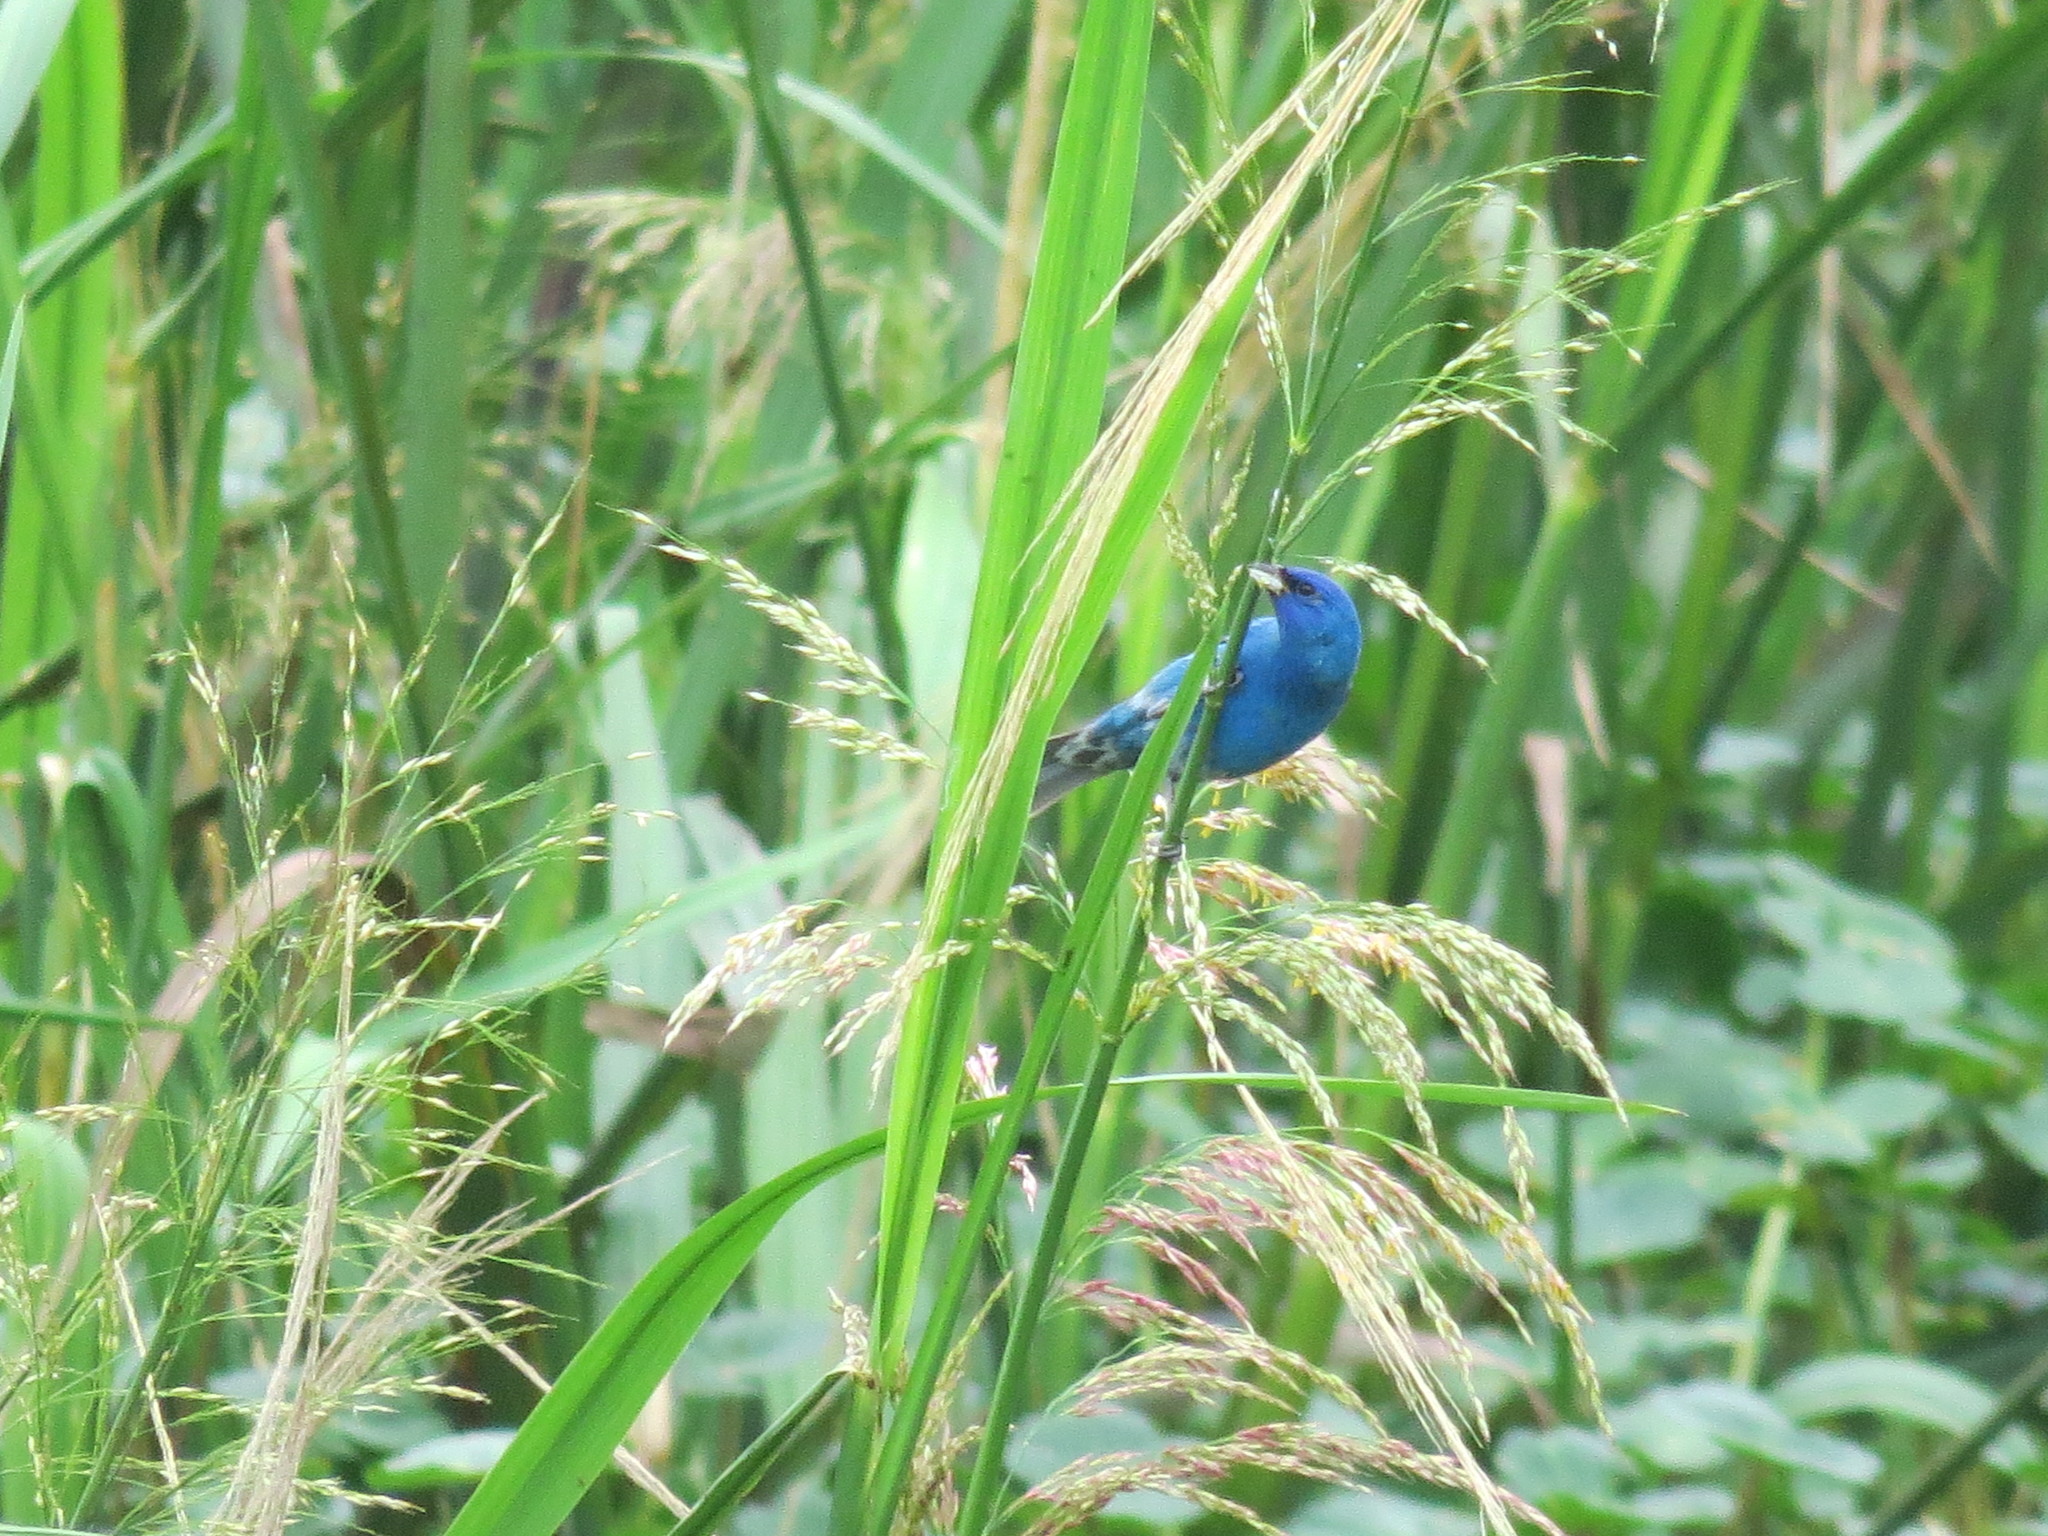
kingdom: Animalia
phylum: Chordata
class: Aves
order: Passeriformes
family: Cardinalidae
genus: Passerina
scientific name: Passerina caerulea
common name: Blue grosbeak
